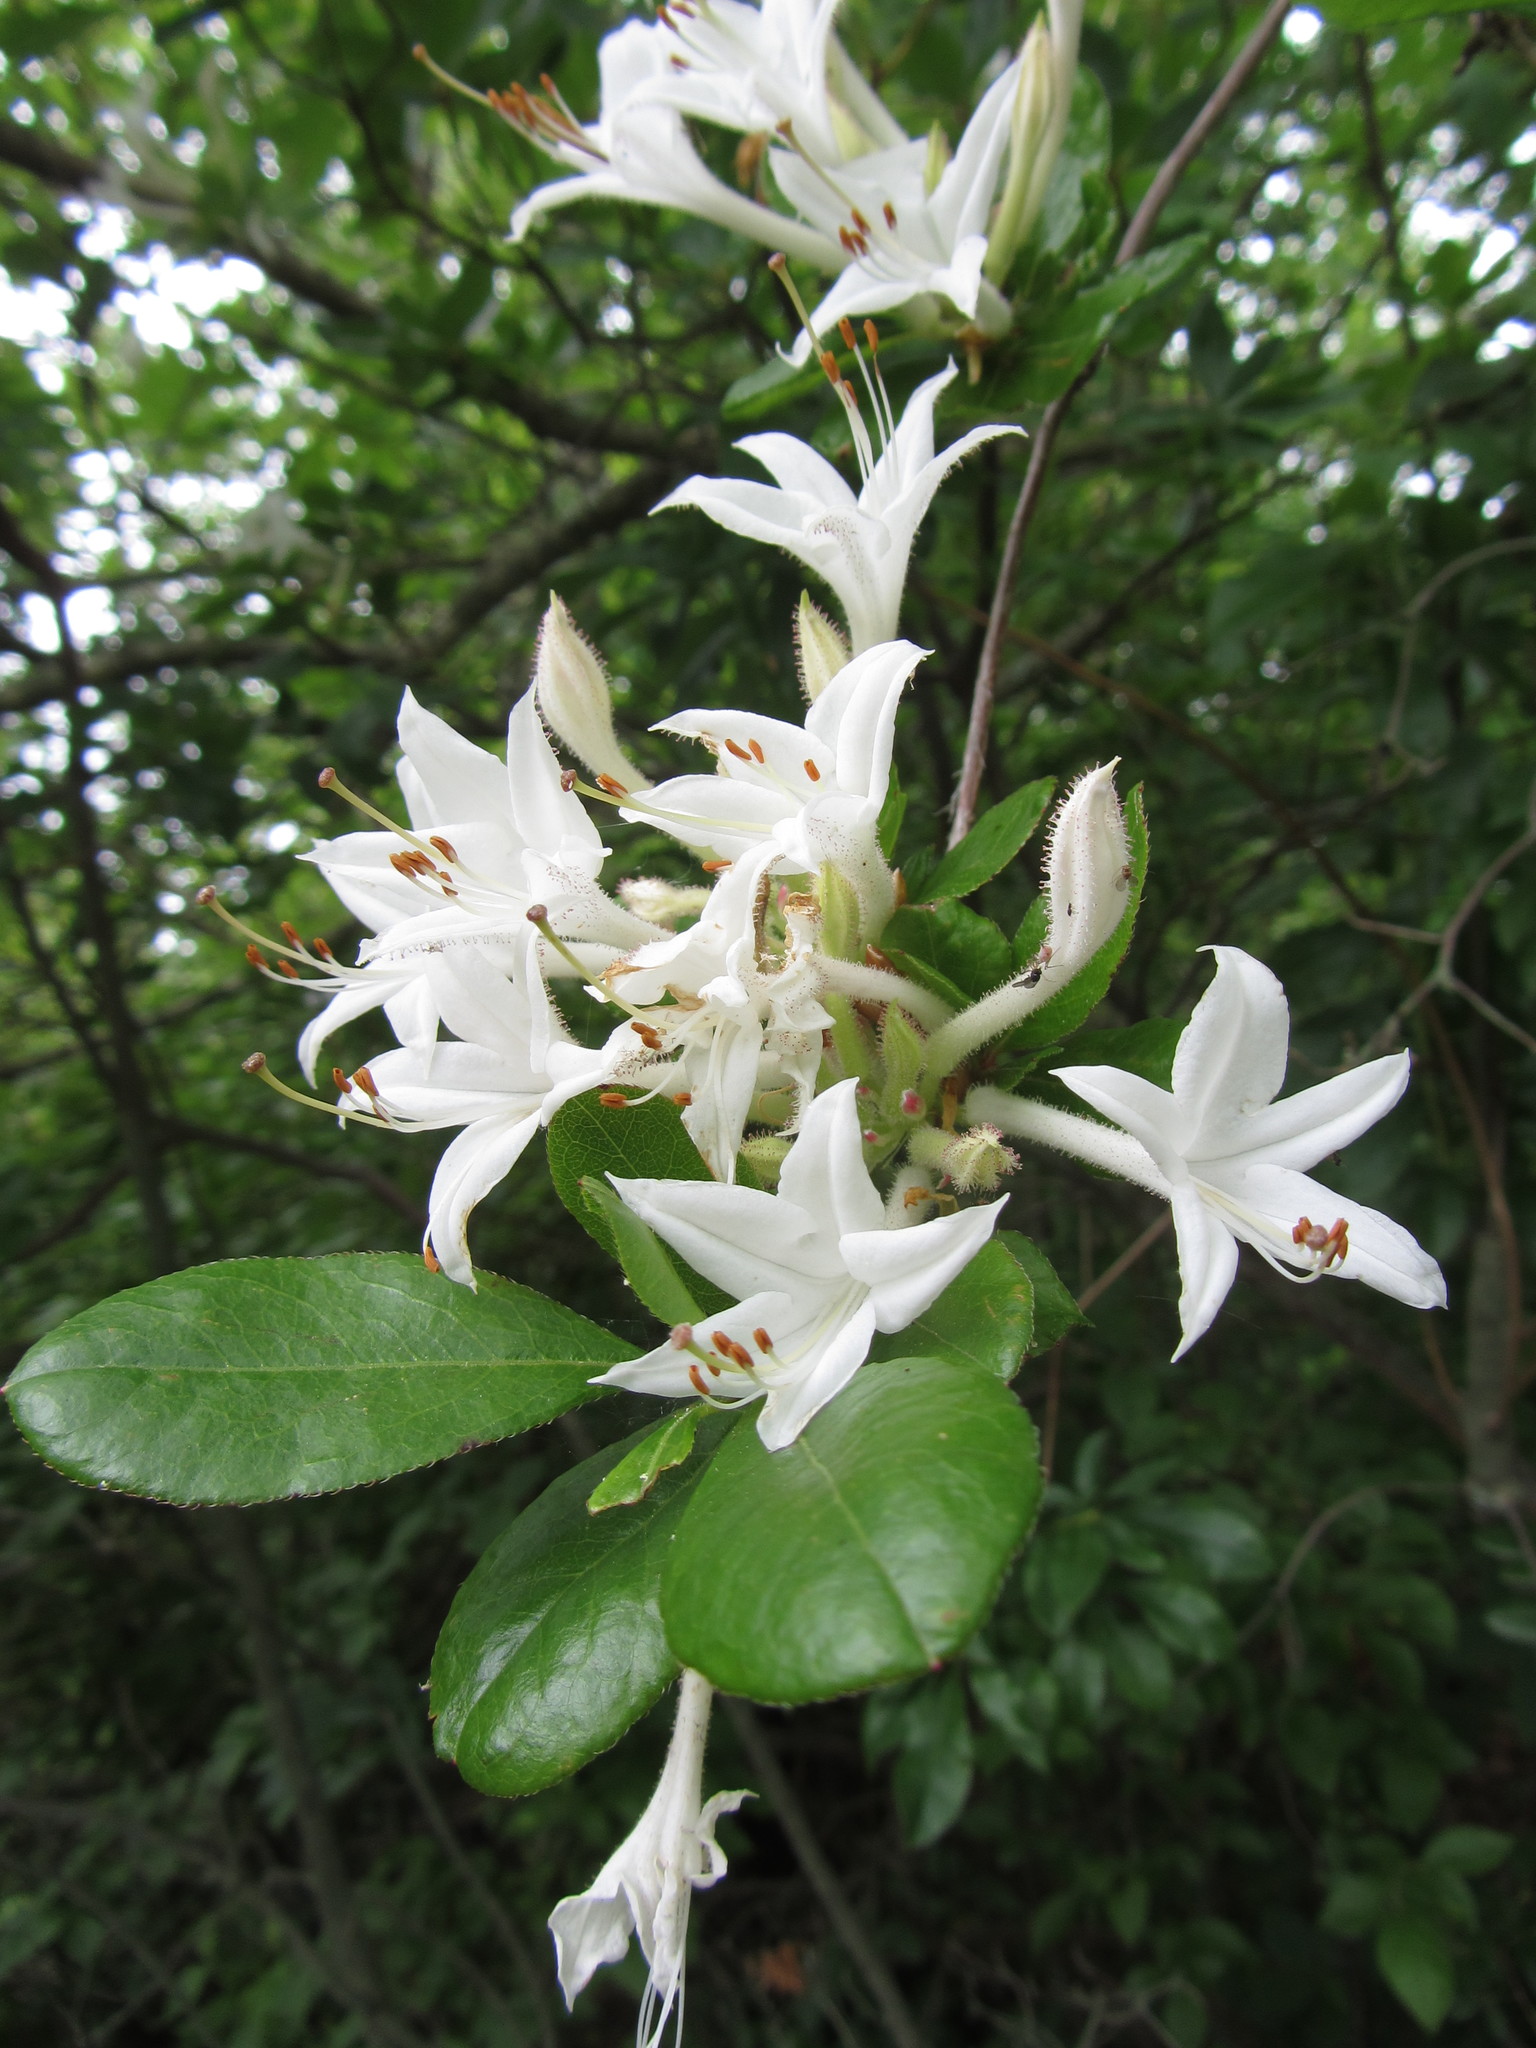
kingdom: Plantae
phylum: Tracheophyta
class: Magnoliopsida
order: Ericales
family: Ericaceae
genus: Rhododendron
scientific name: Rhododendron viscosum
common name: Clammy azalea
